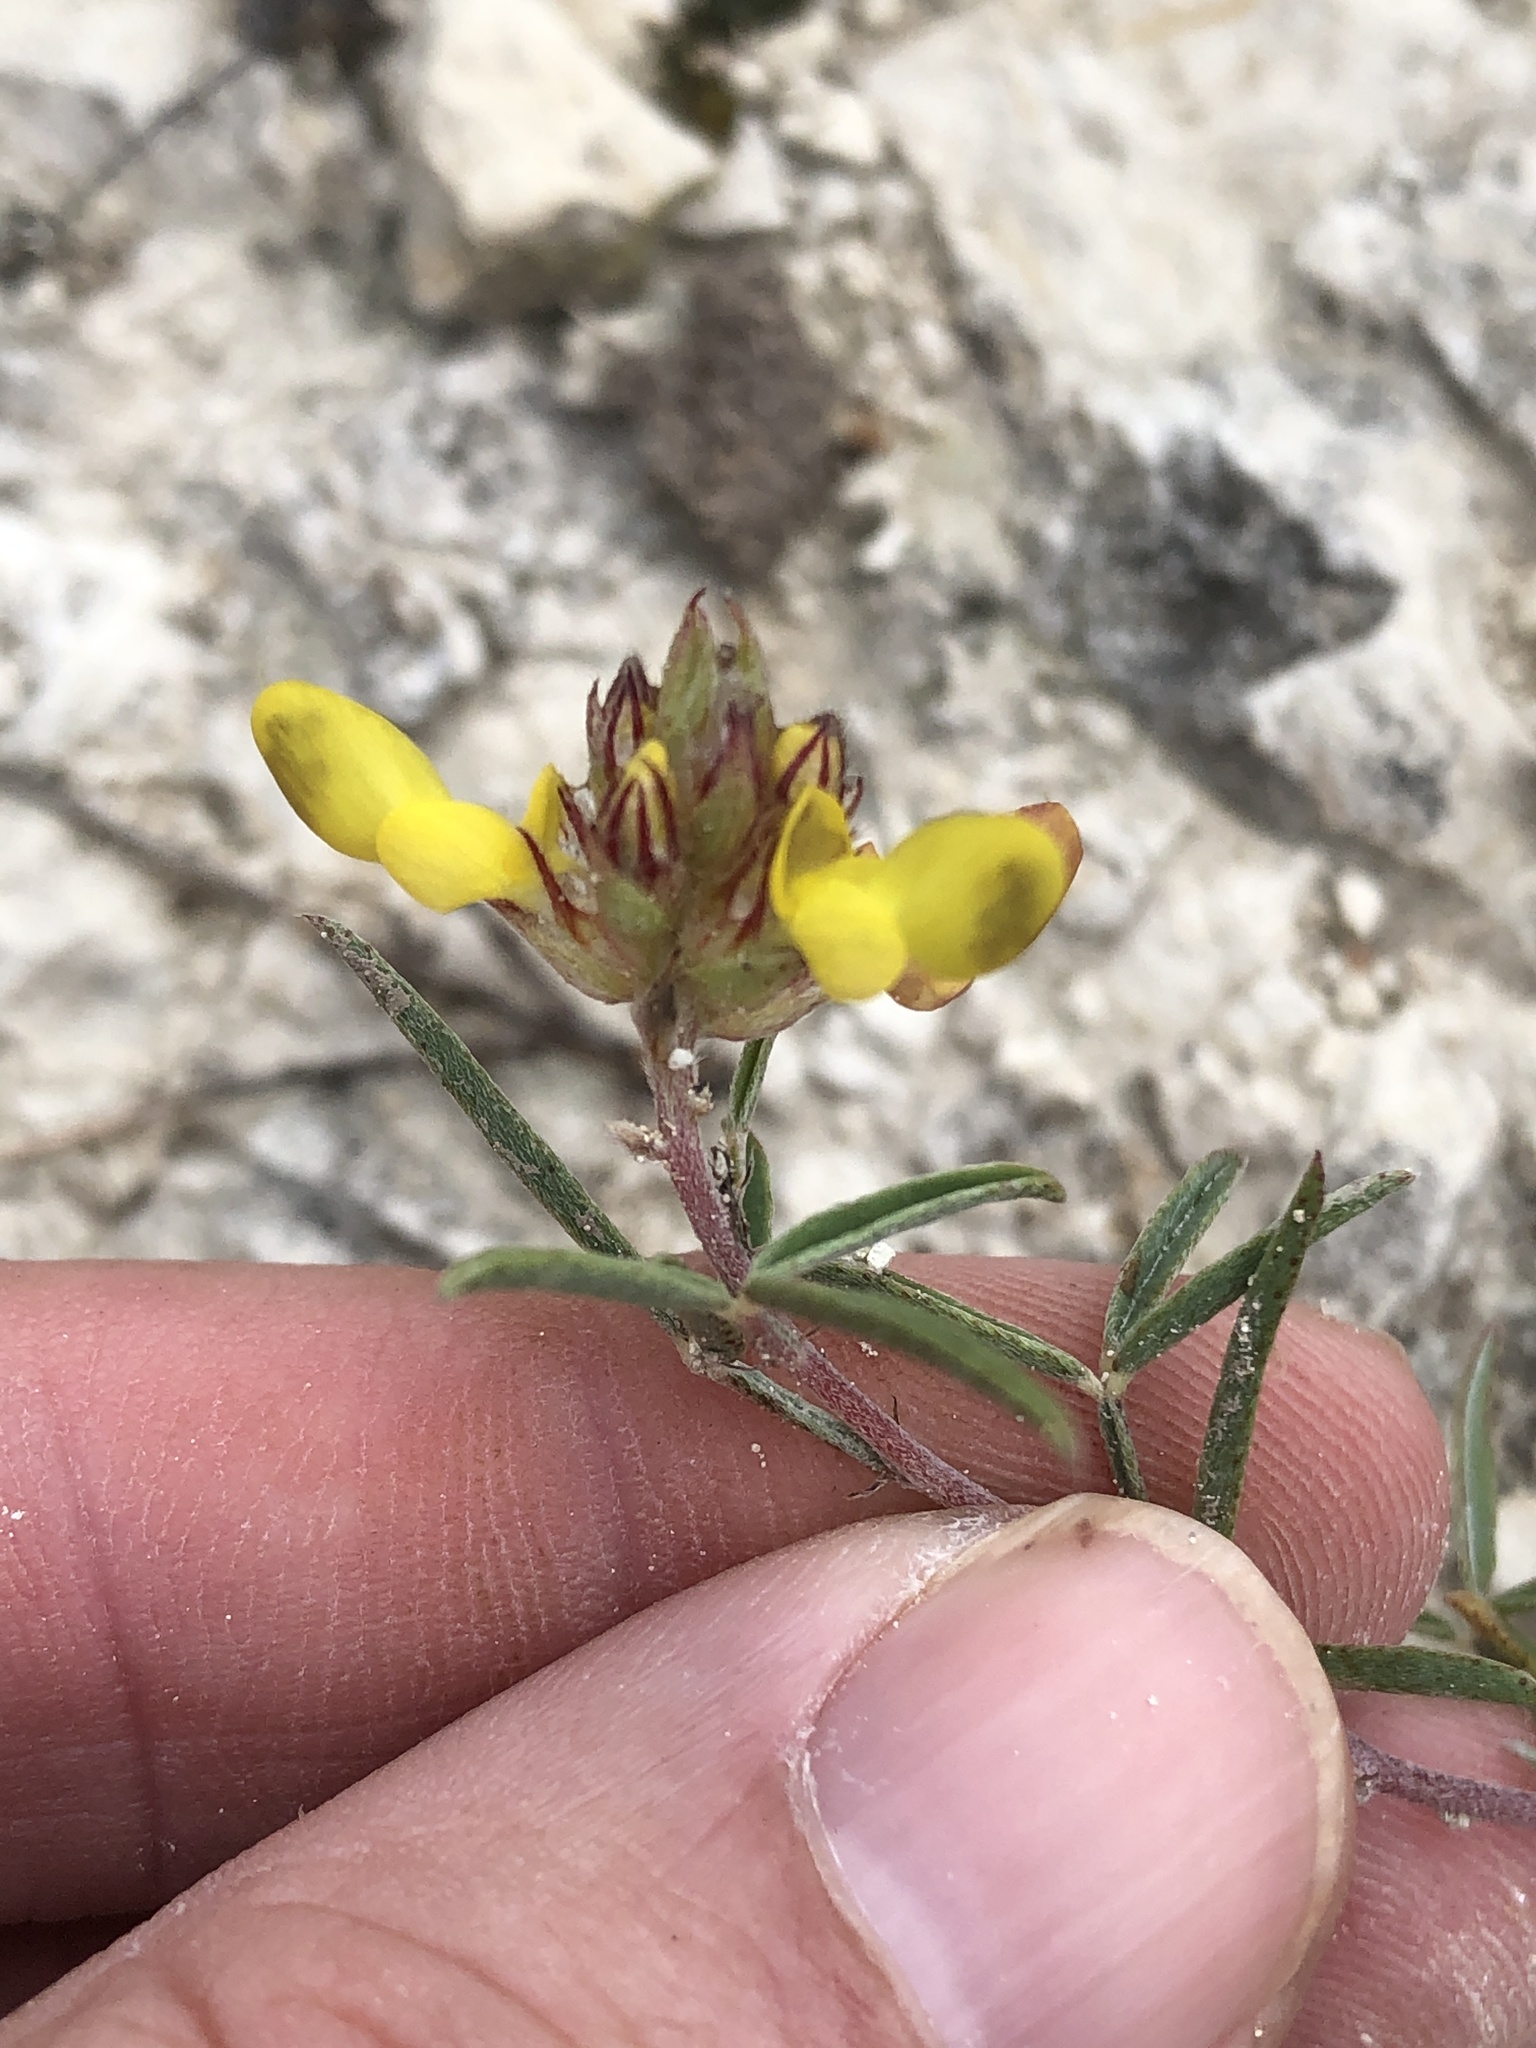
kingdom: Plantae
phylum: Tracheophyta
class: Magnoliopsida
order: Fabales
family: Fabaceae
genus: Dalea
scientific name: Dalea hallii
